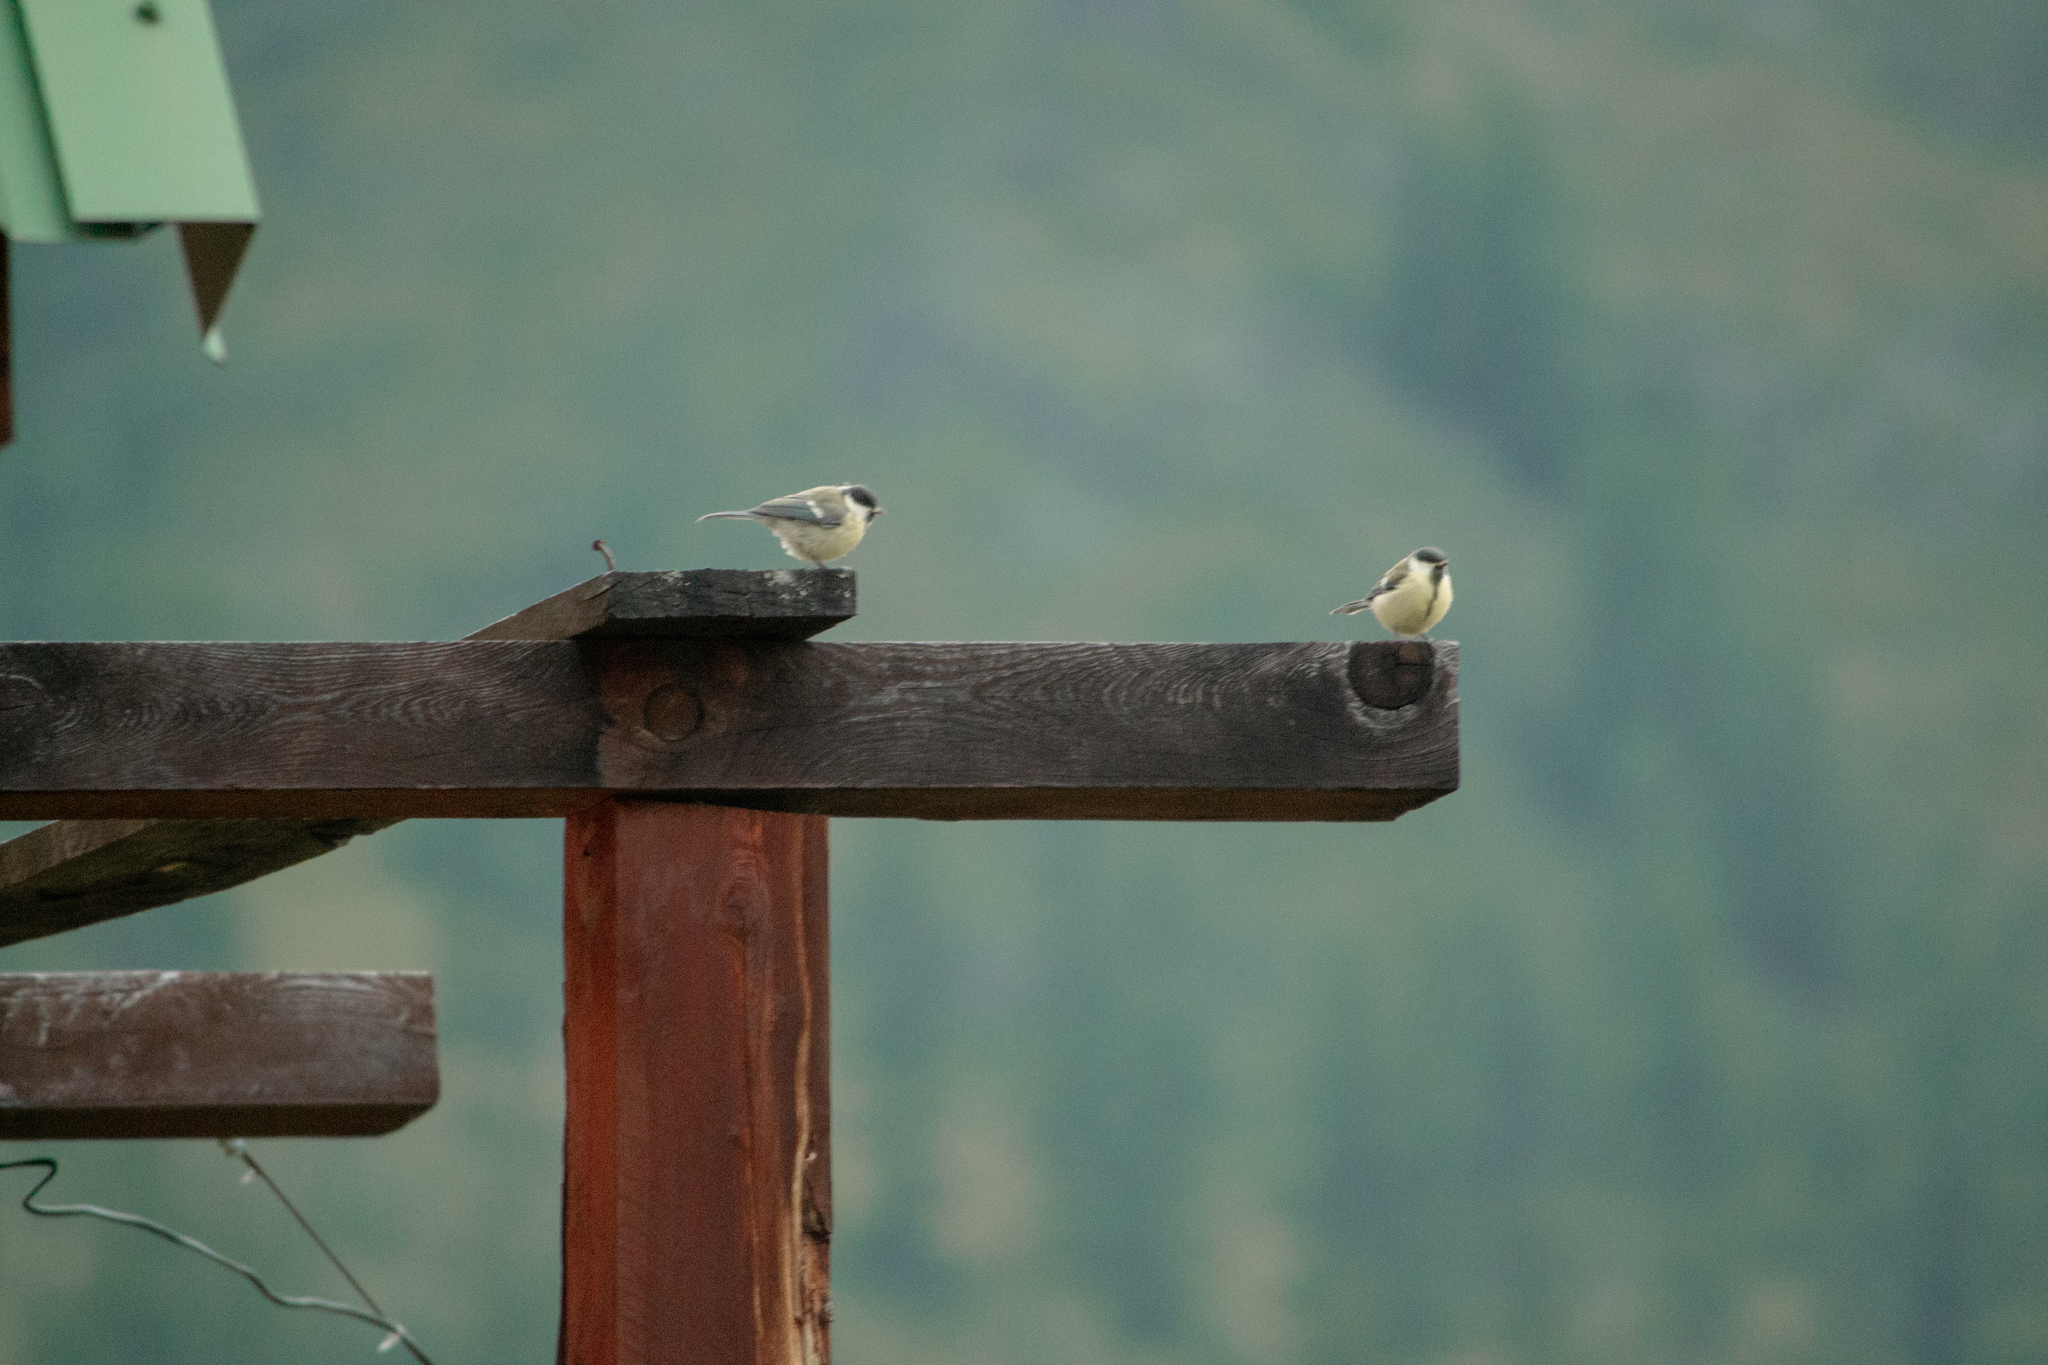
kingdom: Animalia
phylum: Chordata
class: Aves
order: Passeriformes
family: Paridae
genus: Parus
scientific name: Parus major
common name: Great tit
